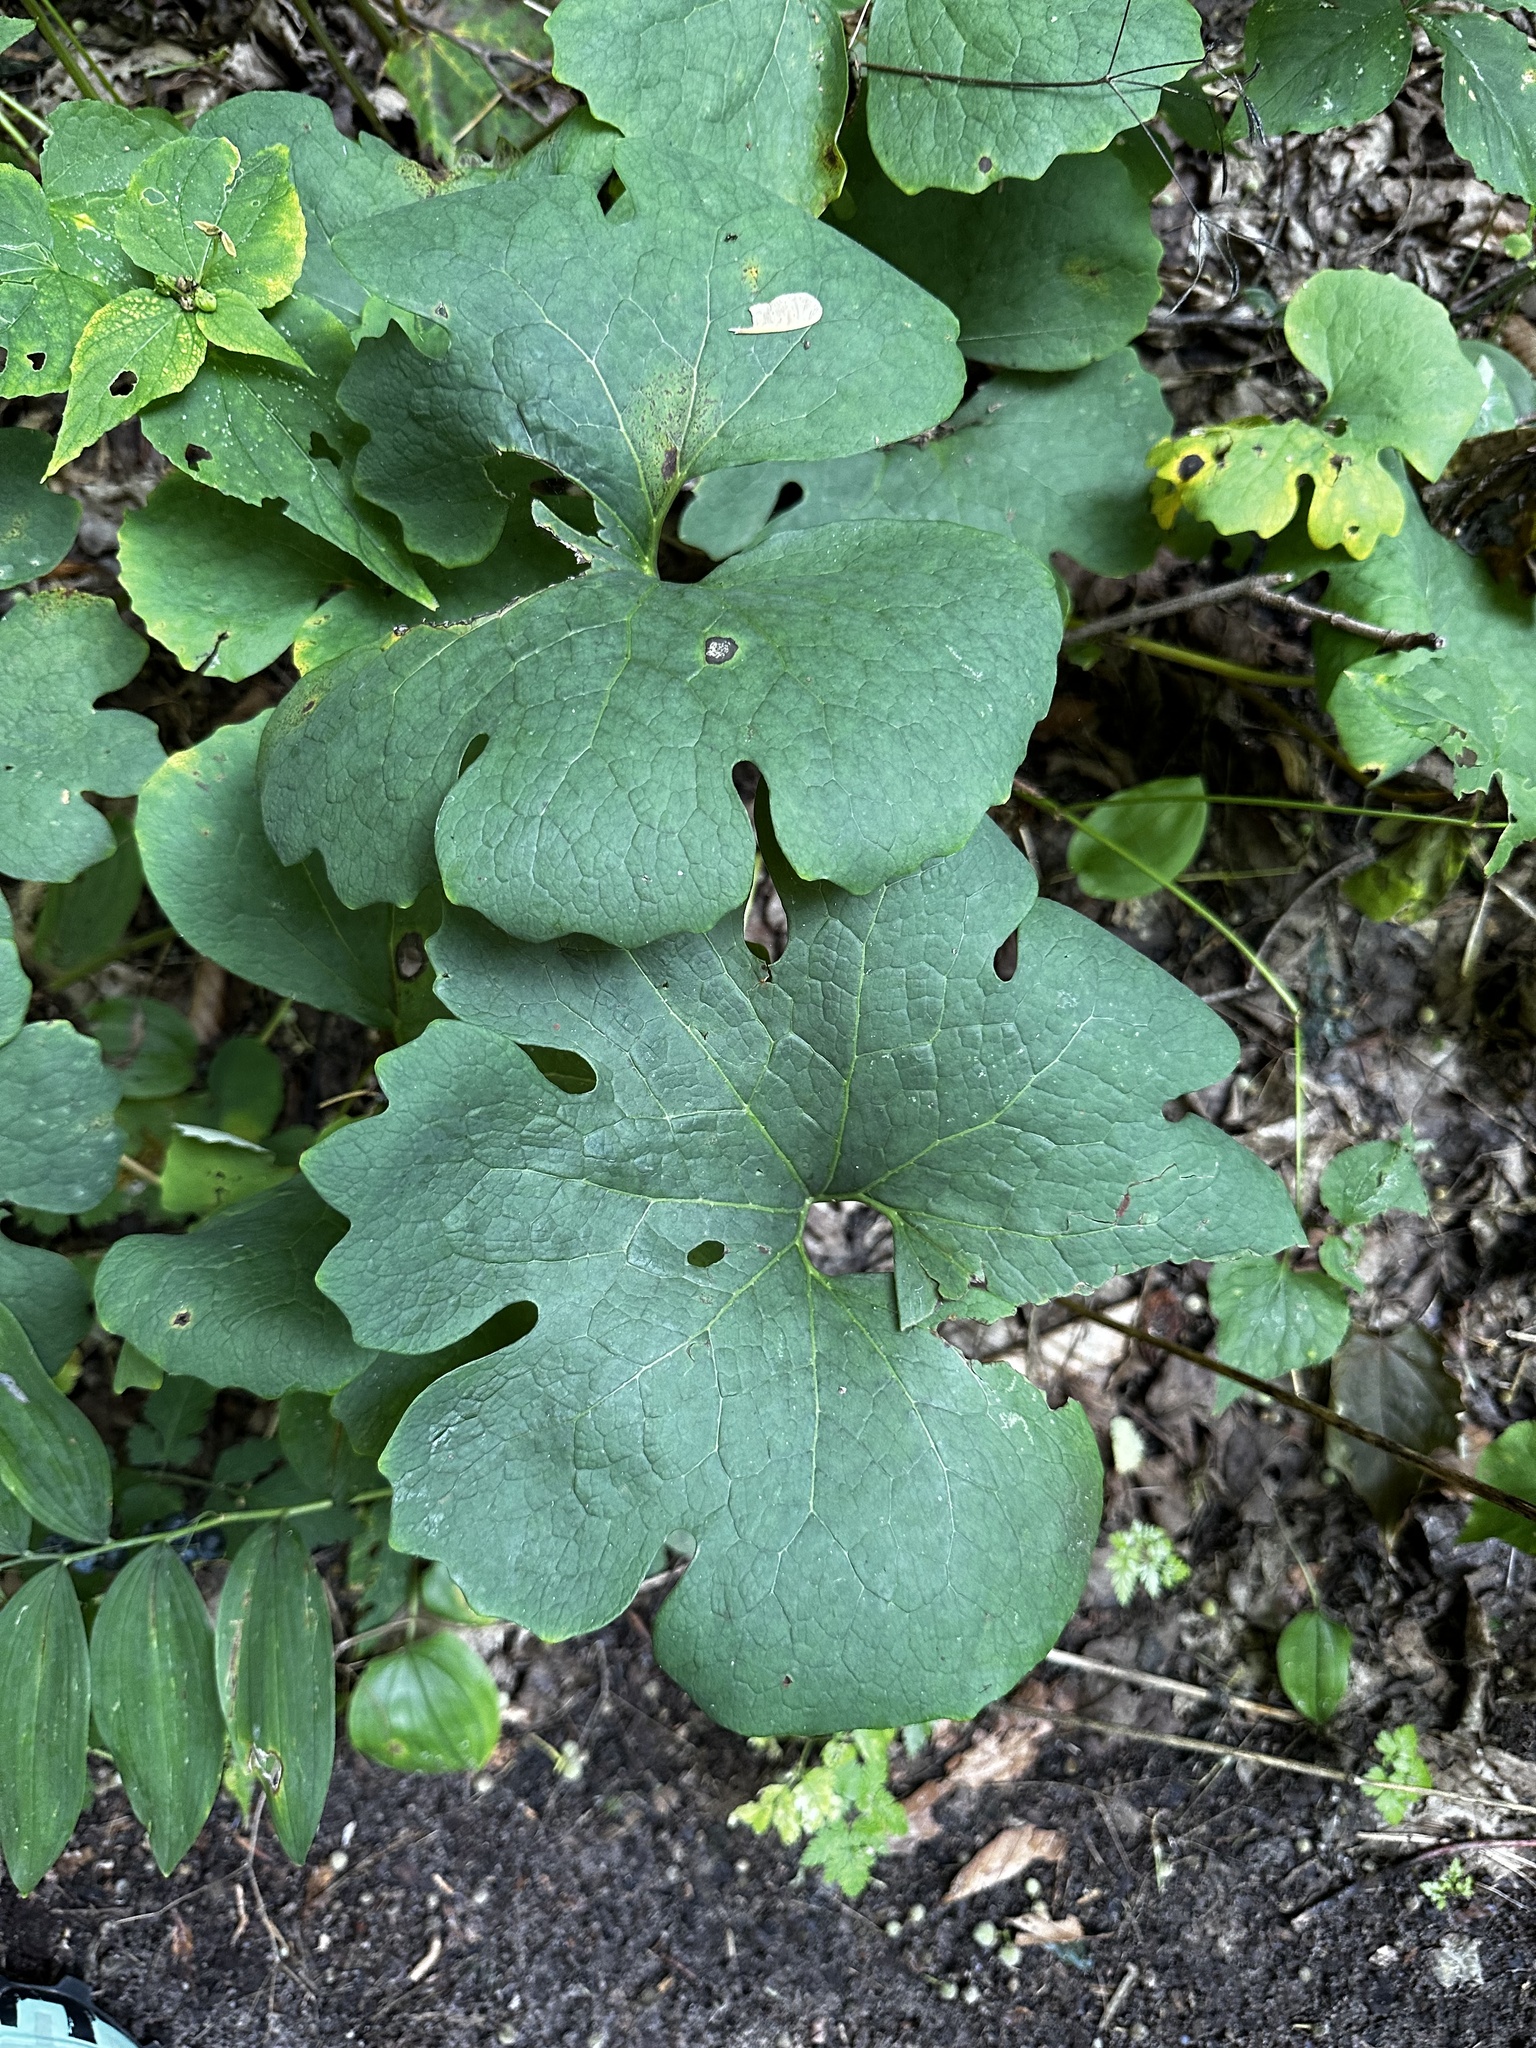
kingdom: Plantae
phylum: Tracheophyta
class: Magnoliopsida
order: Ranunculales
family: Papaveraceae
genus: Sanguinaria
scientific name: Sanguinaria canadensis
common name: Bloodroot
